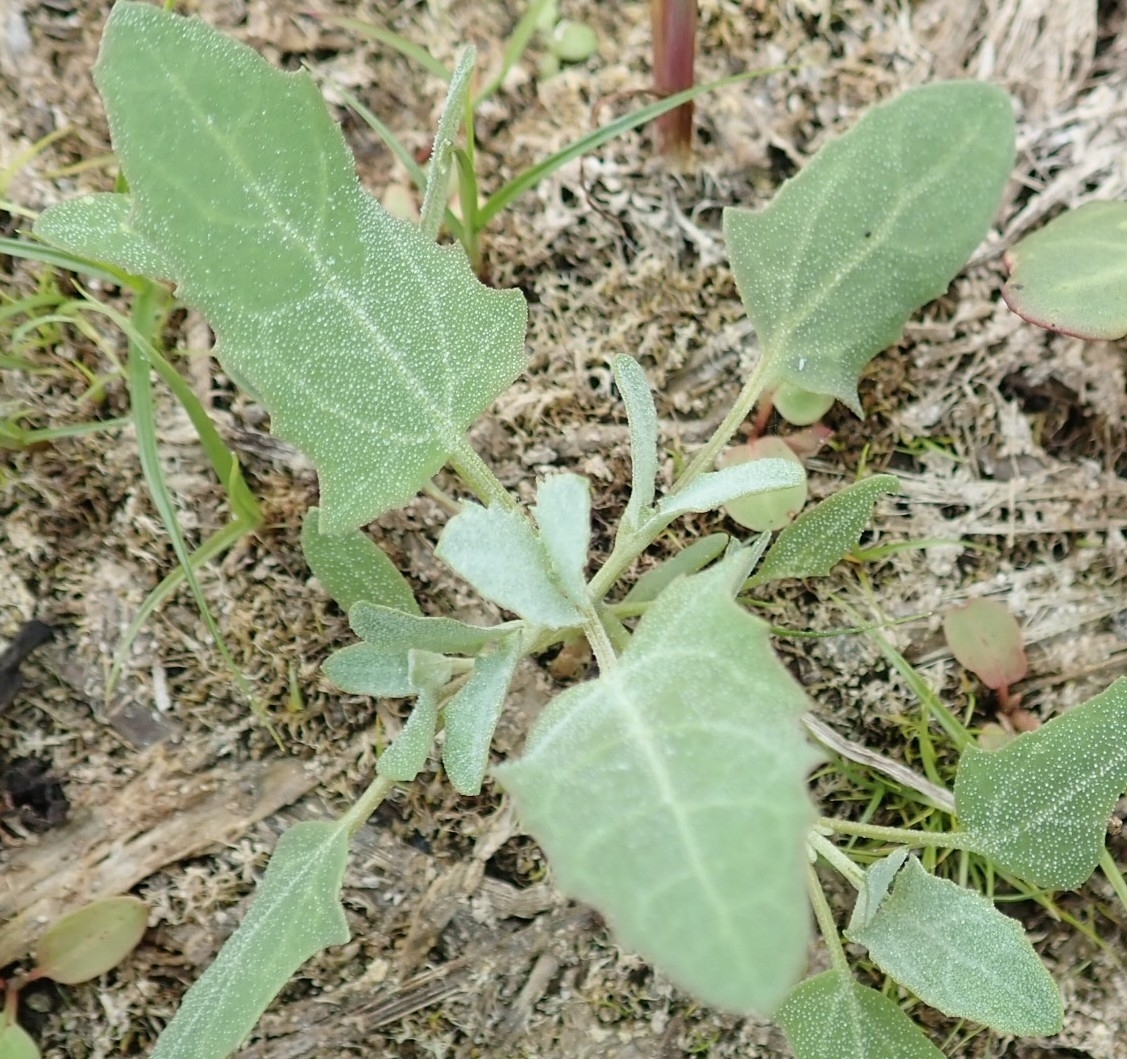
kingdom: Plantae
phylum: Tracheophyta
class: Magnoliopsida
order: Caryophyllales
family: Amaranthaceae
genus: Chenopodium
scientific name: Chenopodium album
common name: Fat-hen
